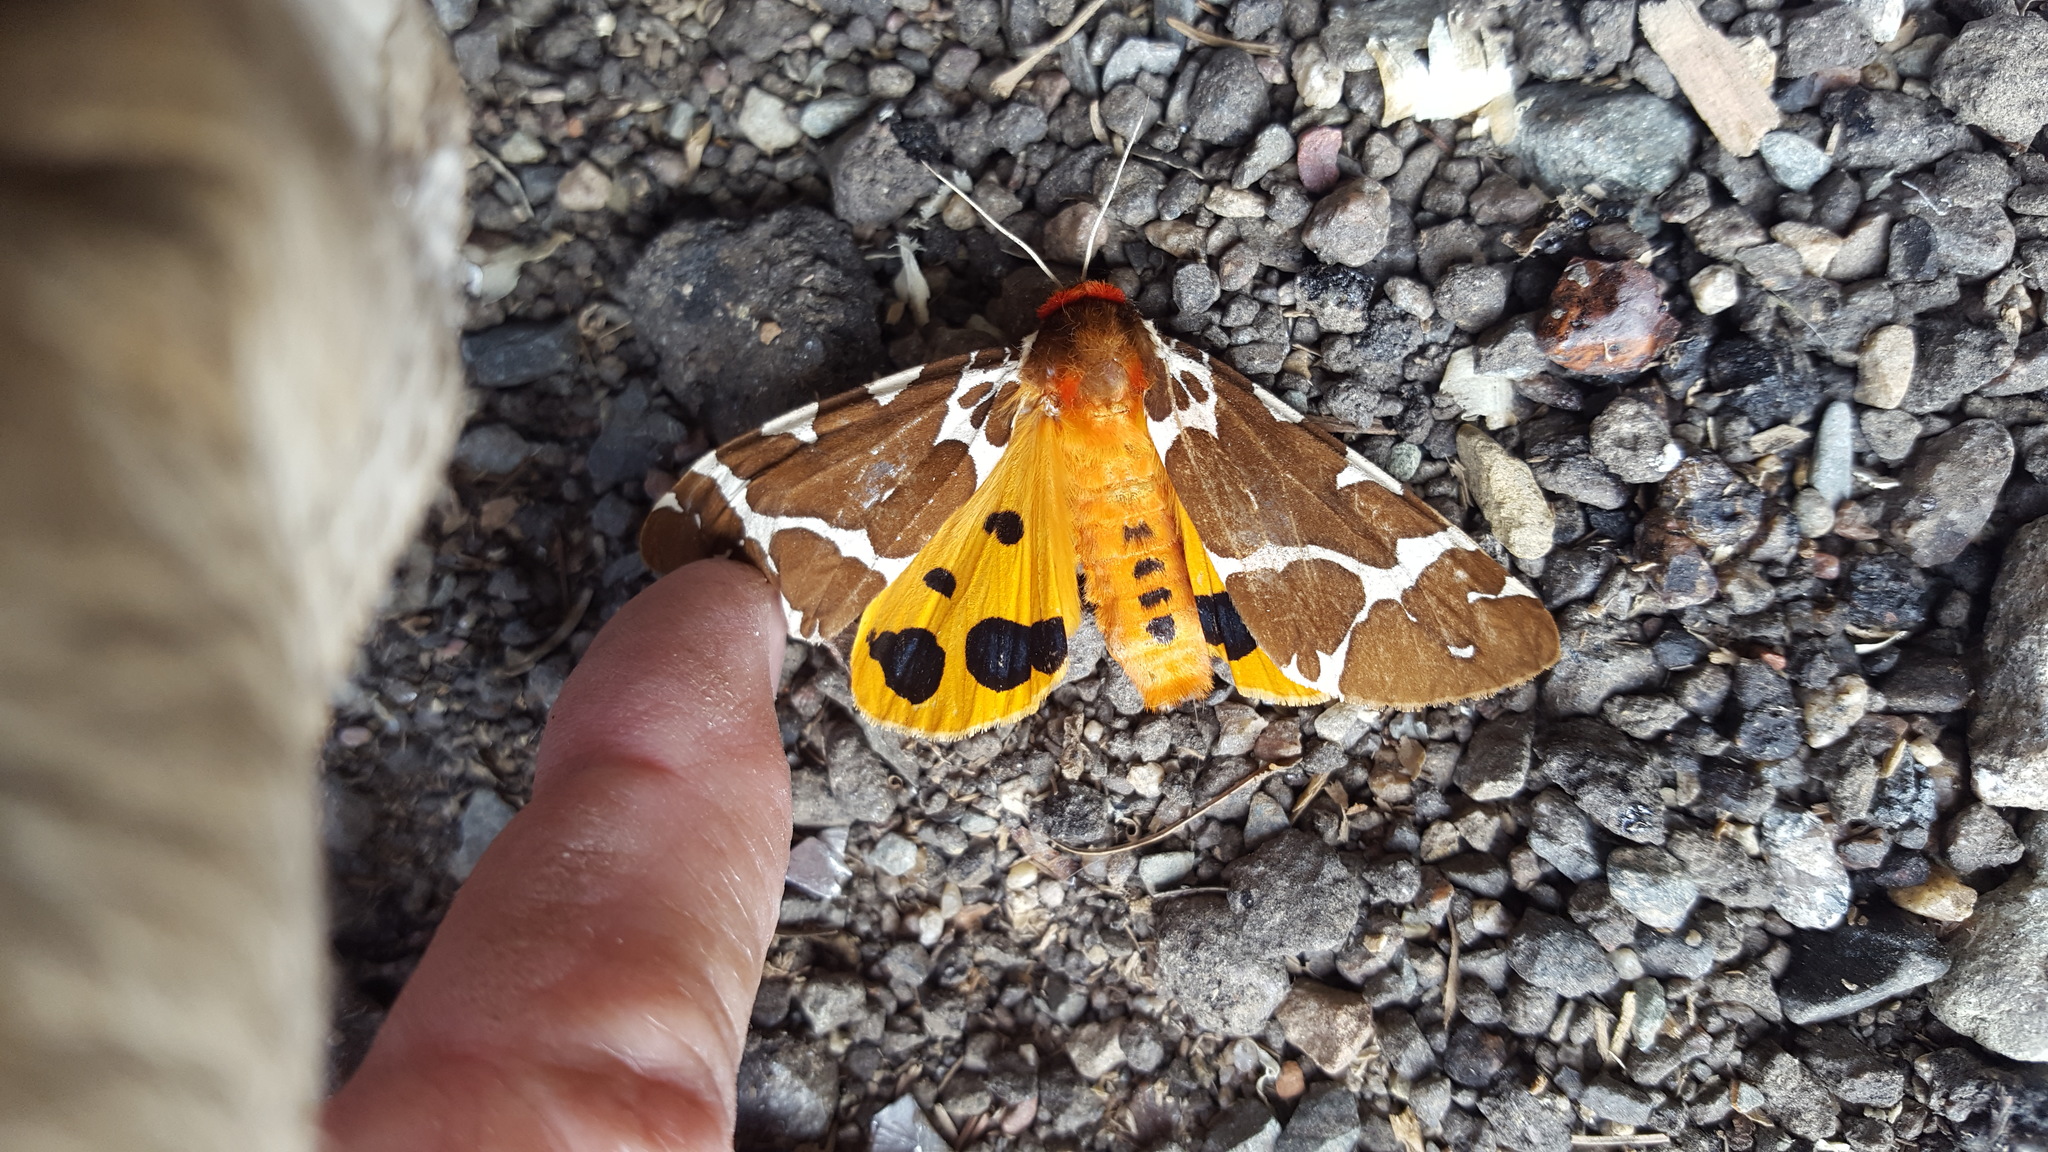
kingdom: Animalia
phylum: Arthropoda
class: Insecta
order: Lepidoptera
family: Erebidae
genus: Arctia
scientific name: Arctia caja
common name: Garden tiger
